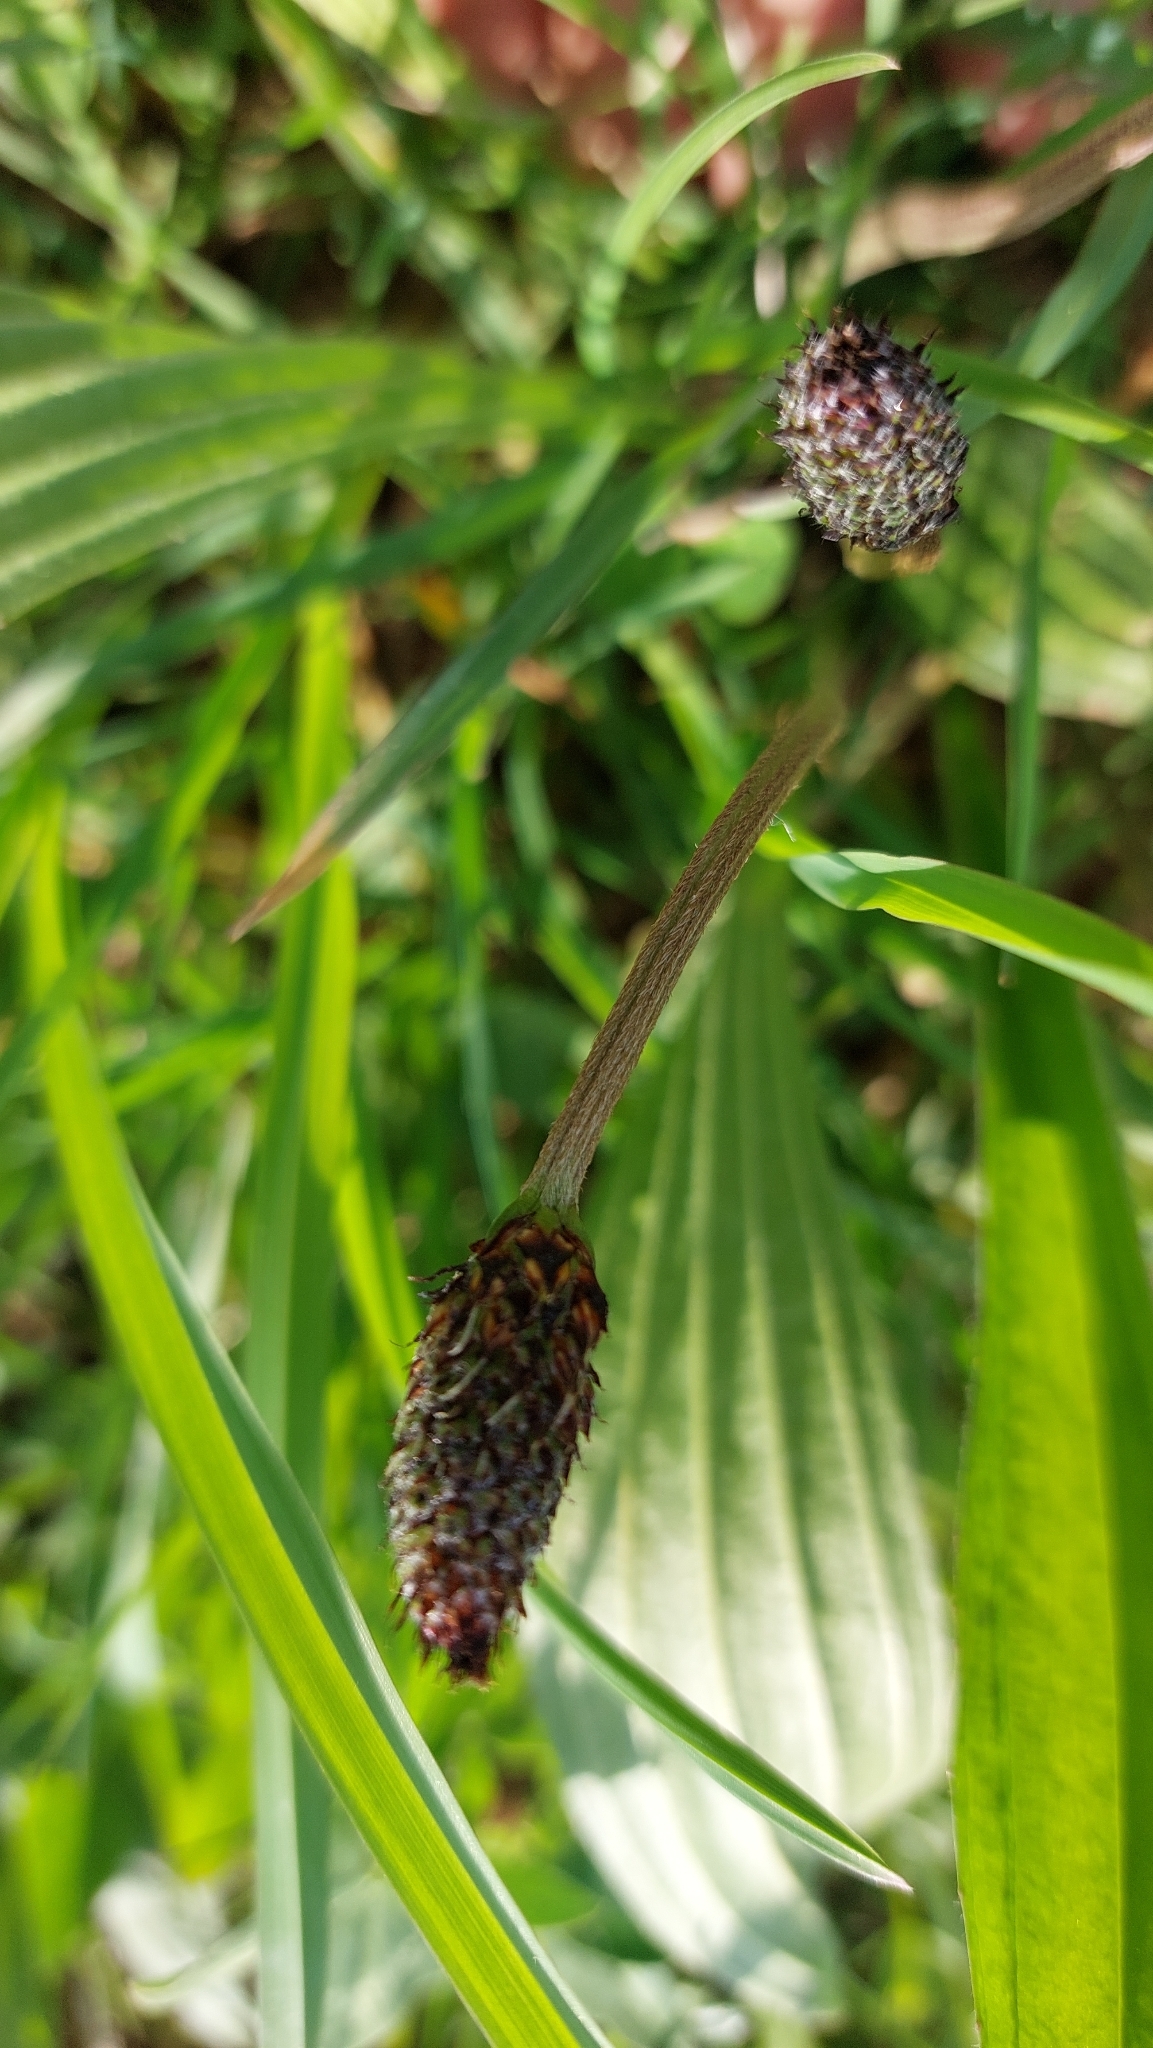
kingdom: Plantae
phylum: Tracheophyta
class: Magnoliopsida
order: Lamiales
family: Plantaginaceae
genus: Plantago
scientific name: Plantago lanceolata
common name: Ribwort plantain
